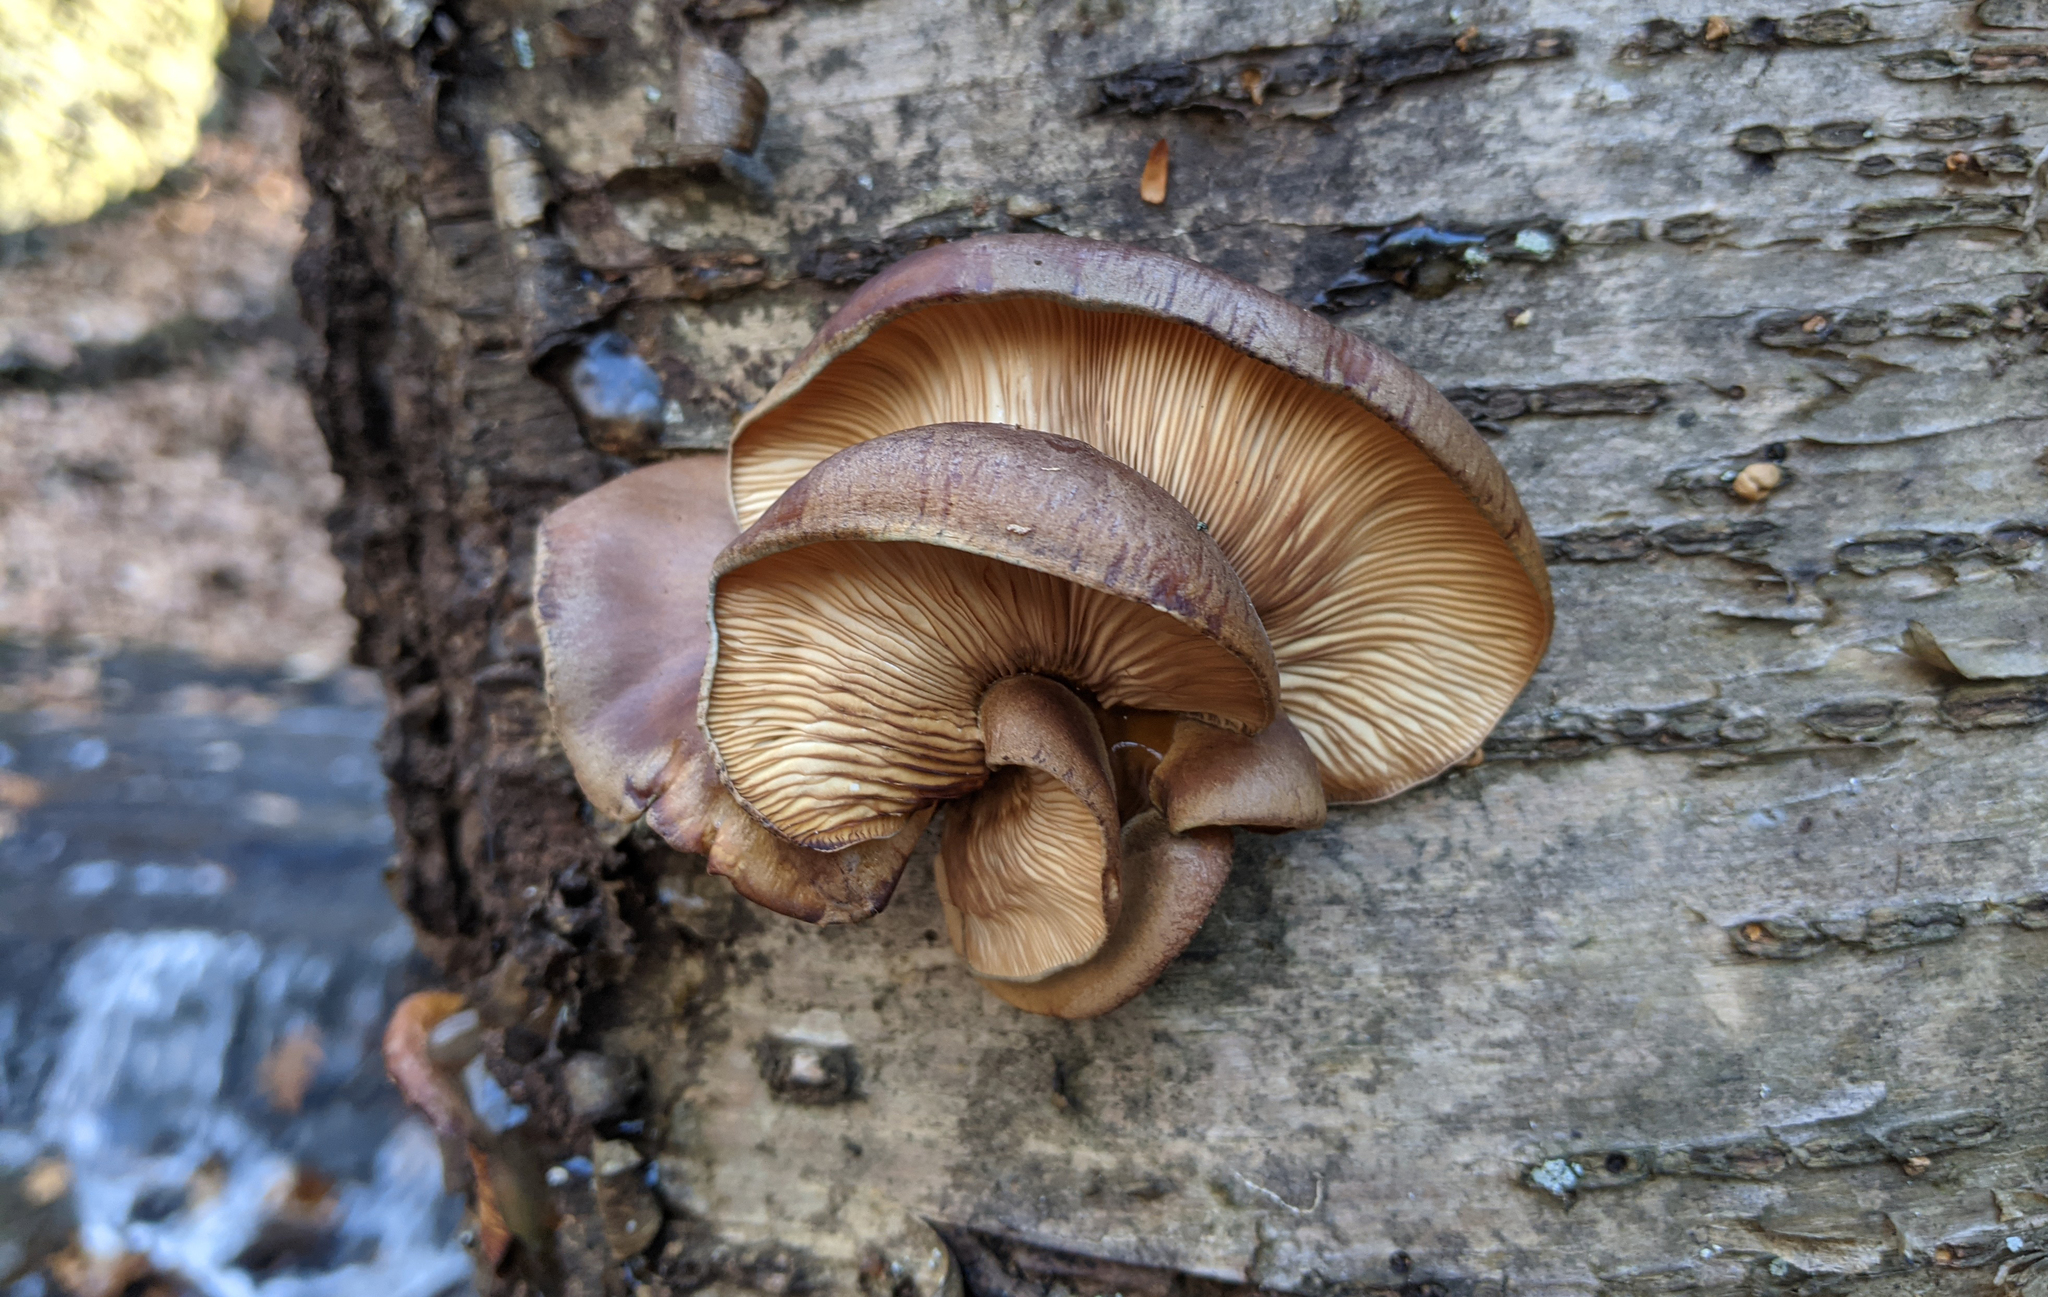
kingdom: Fungi
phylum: Basidiomycota
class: Agaricomycetes
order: Agaricales
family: Sarcomyxaceae
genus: Sarcomyxa
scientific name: Sarcomyxa serotina
